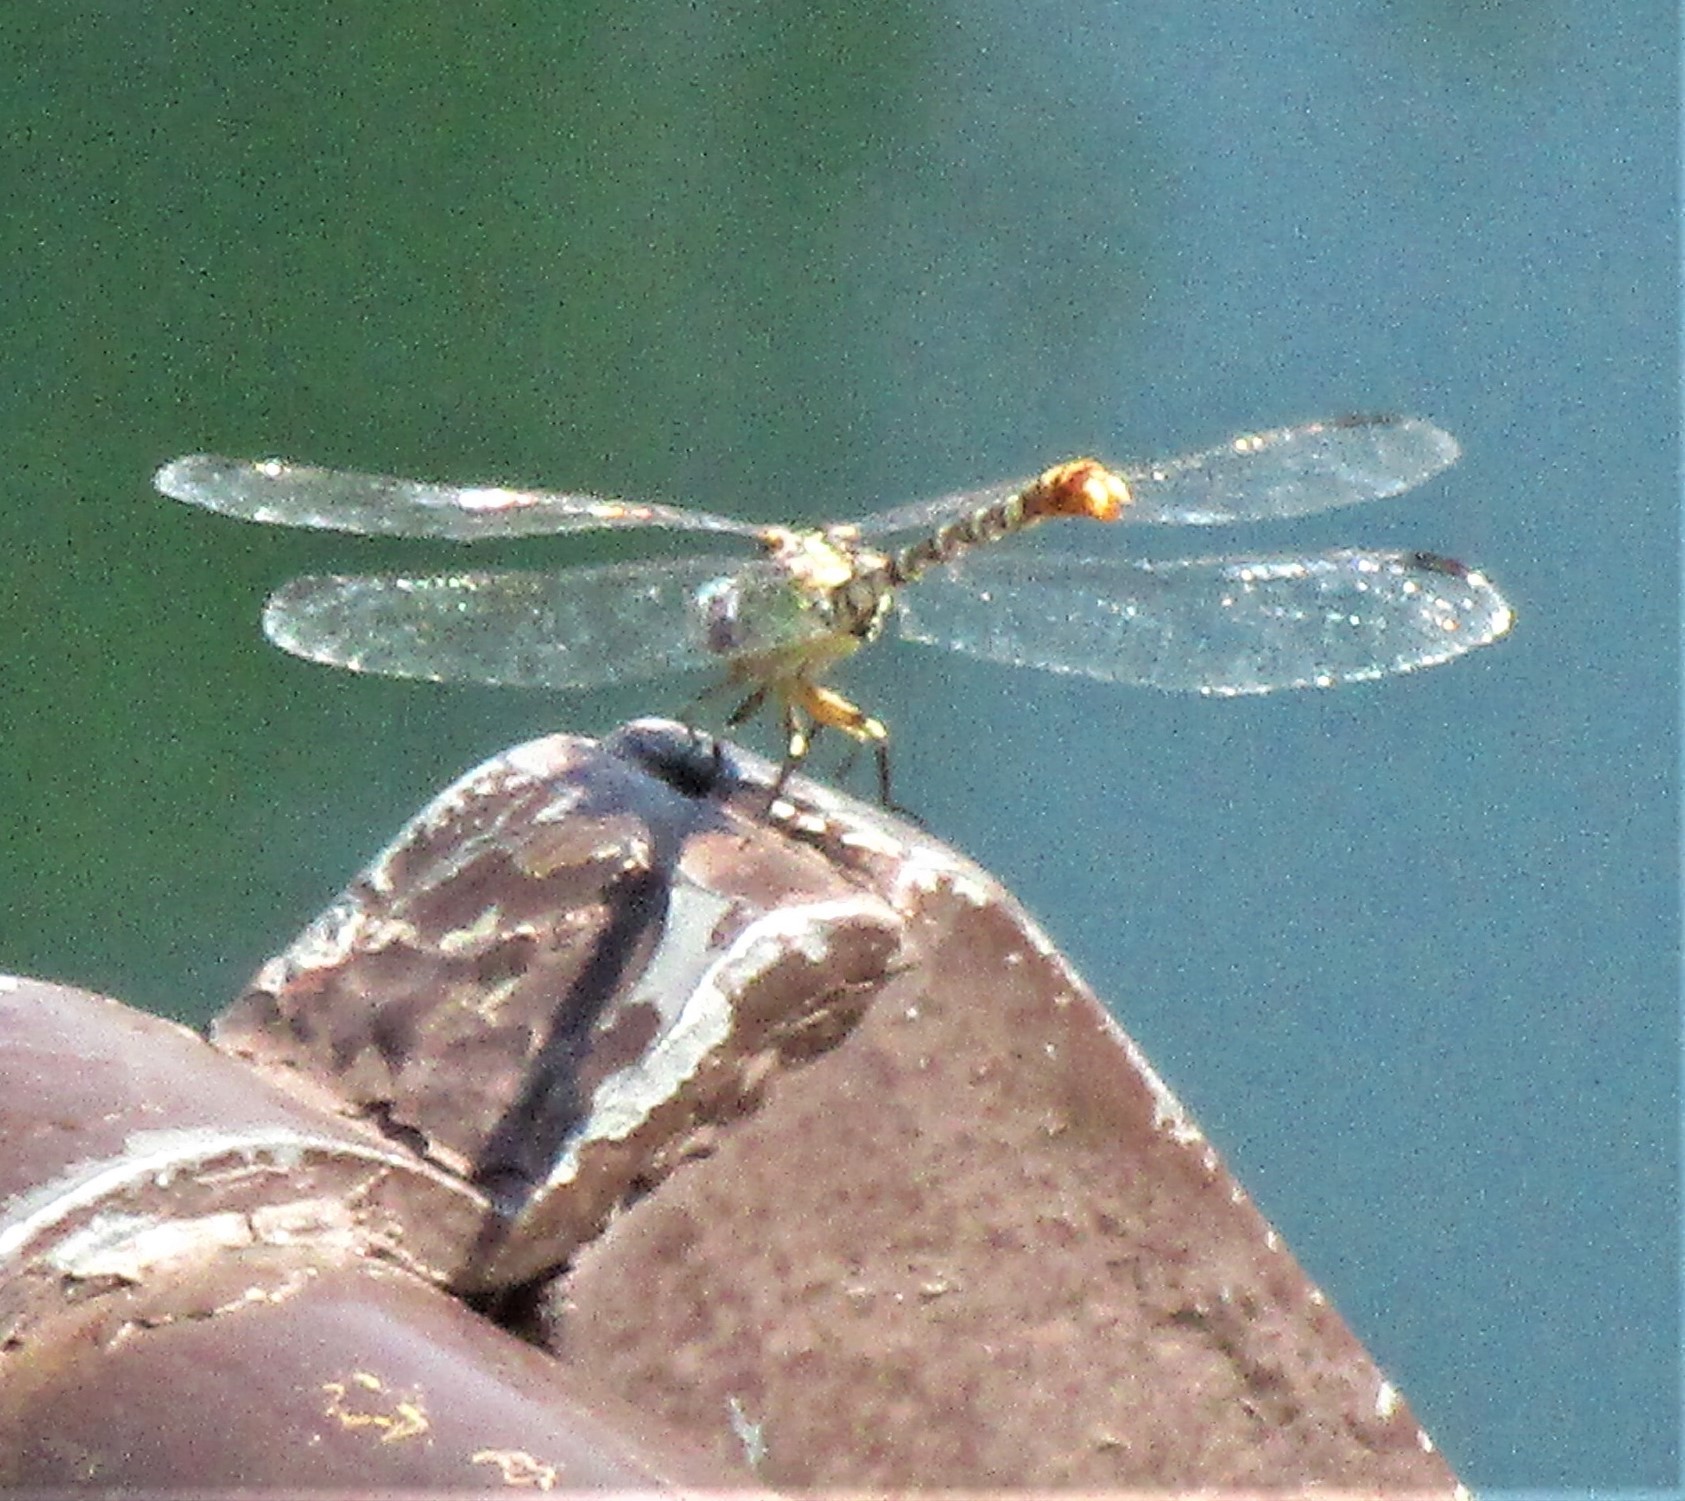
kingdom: Animalia
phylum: Arthropoda
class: Insecta
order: Odonata
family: Gomphidae
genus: Erpetogomphus
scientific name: Erpetogomphus lampropeltis
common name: Serpent ringtail
